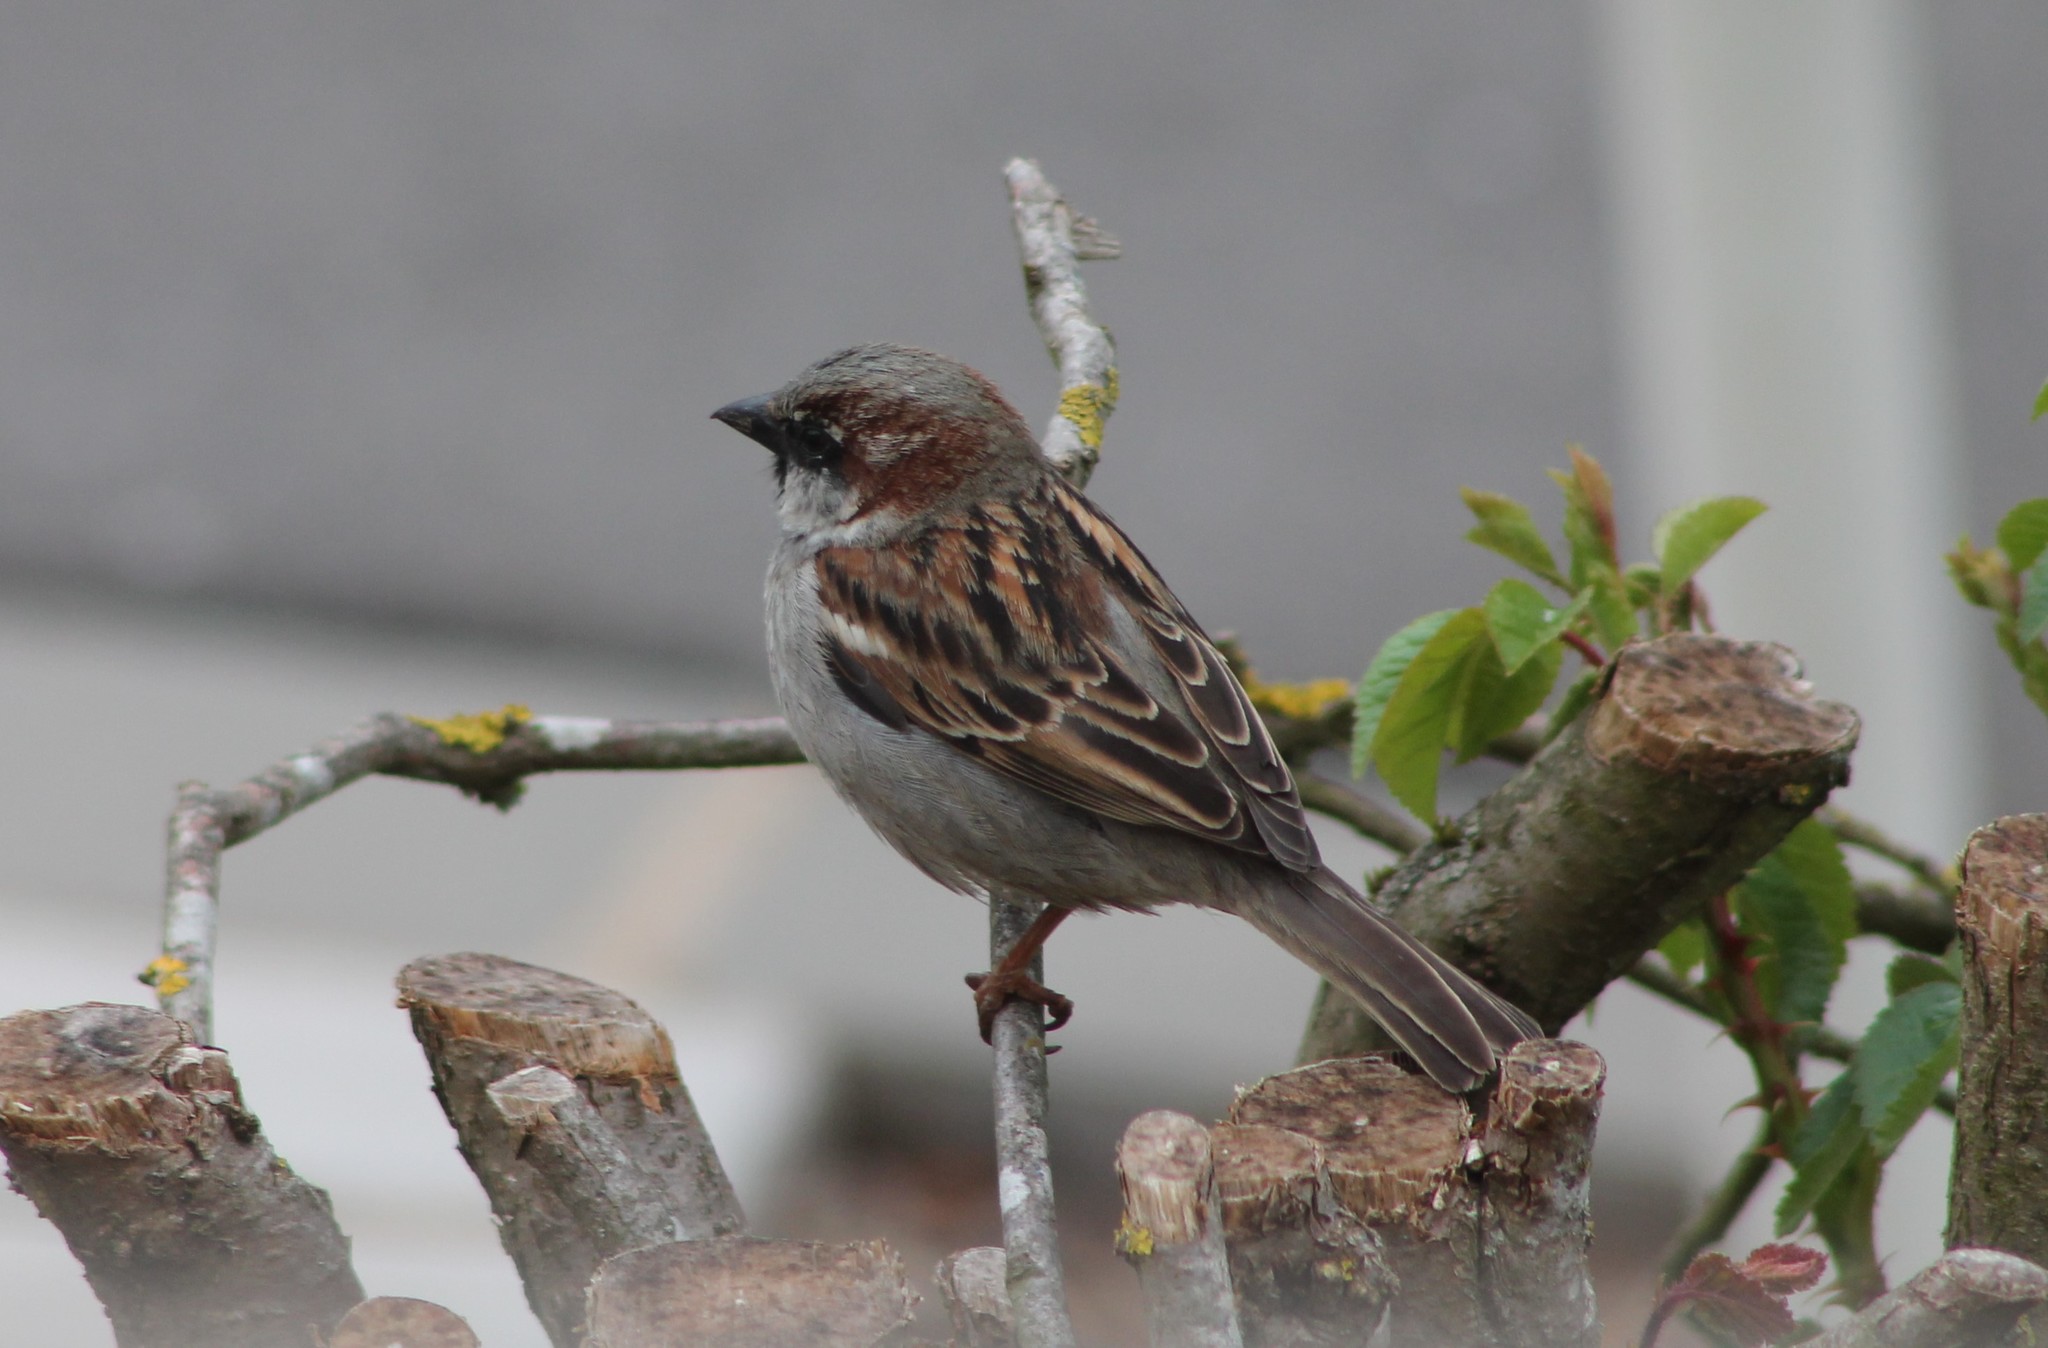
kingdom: Animalia
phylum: Chordata
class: Aves
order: Passeriformes
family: Passeridae
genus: Passer
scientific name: Passer domesticus
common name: House sparrow
